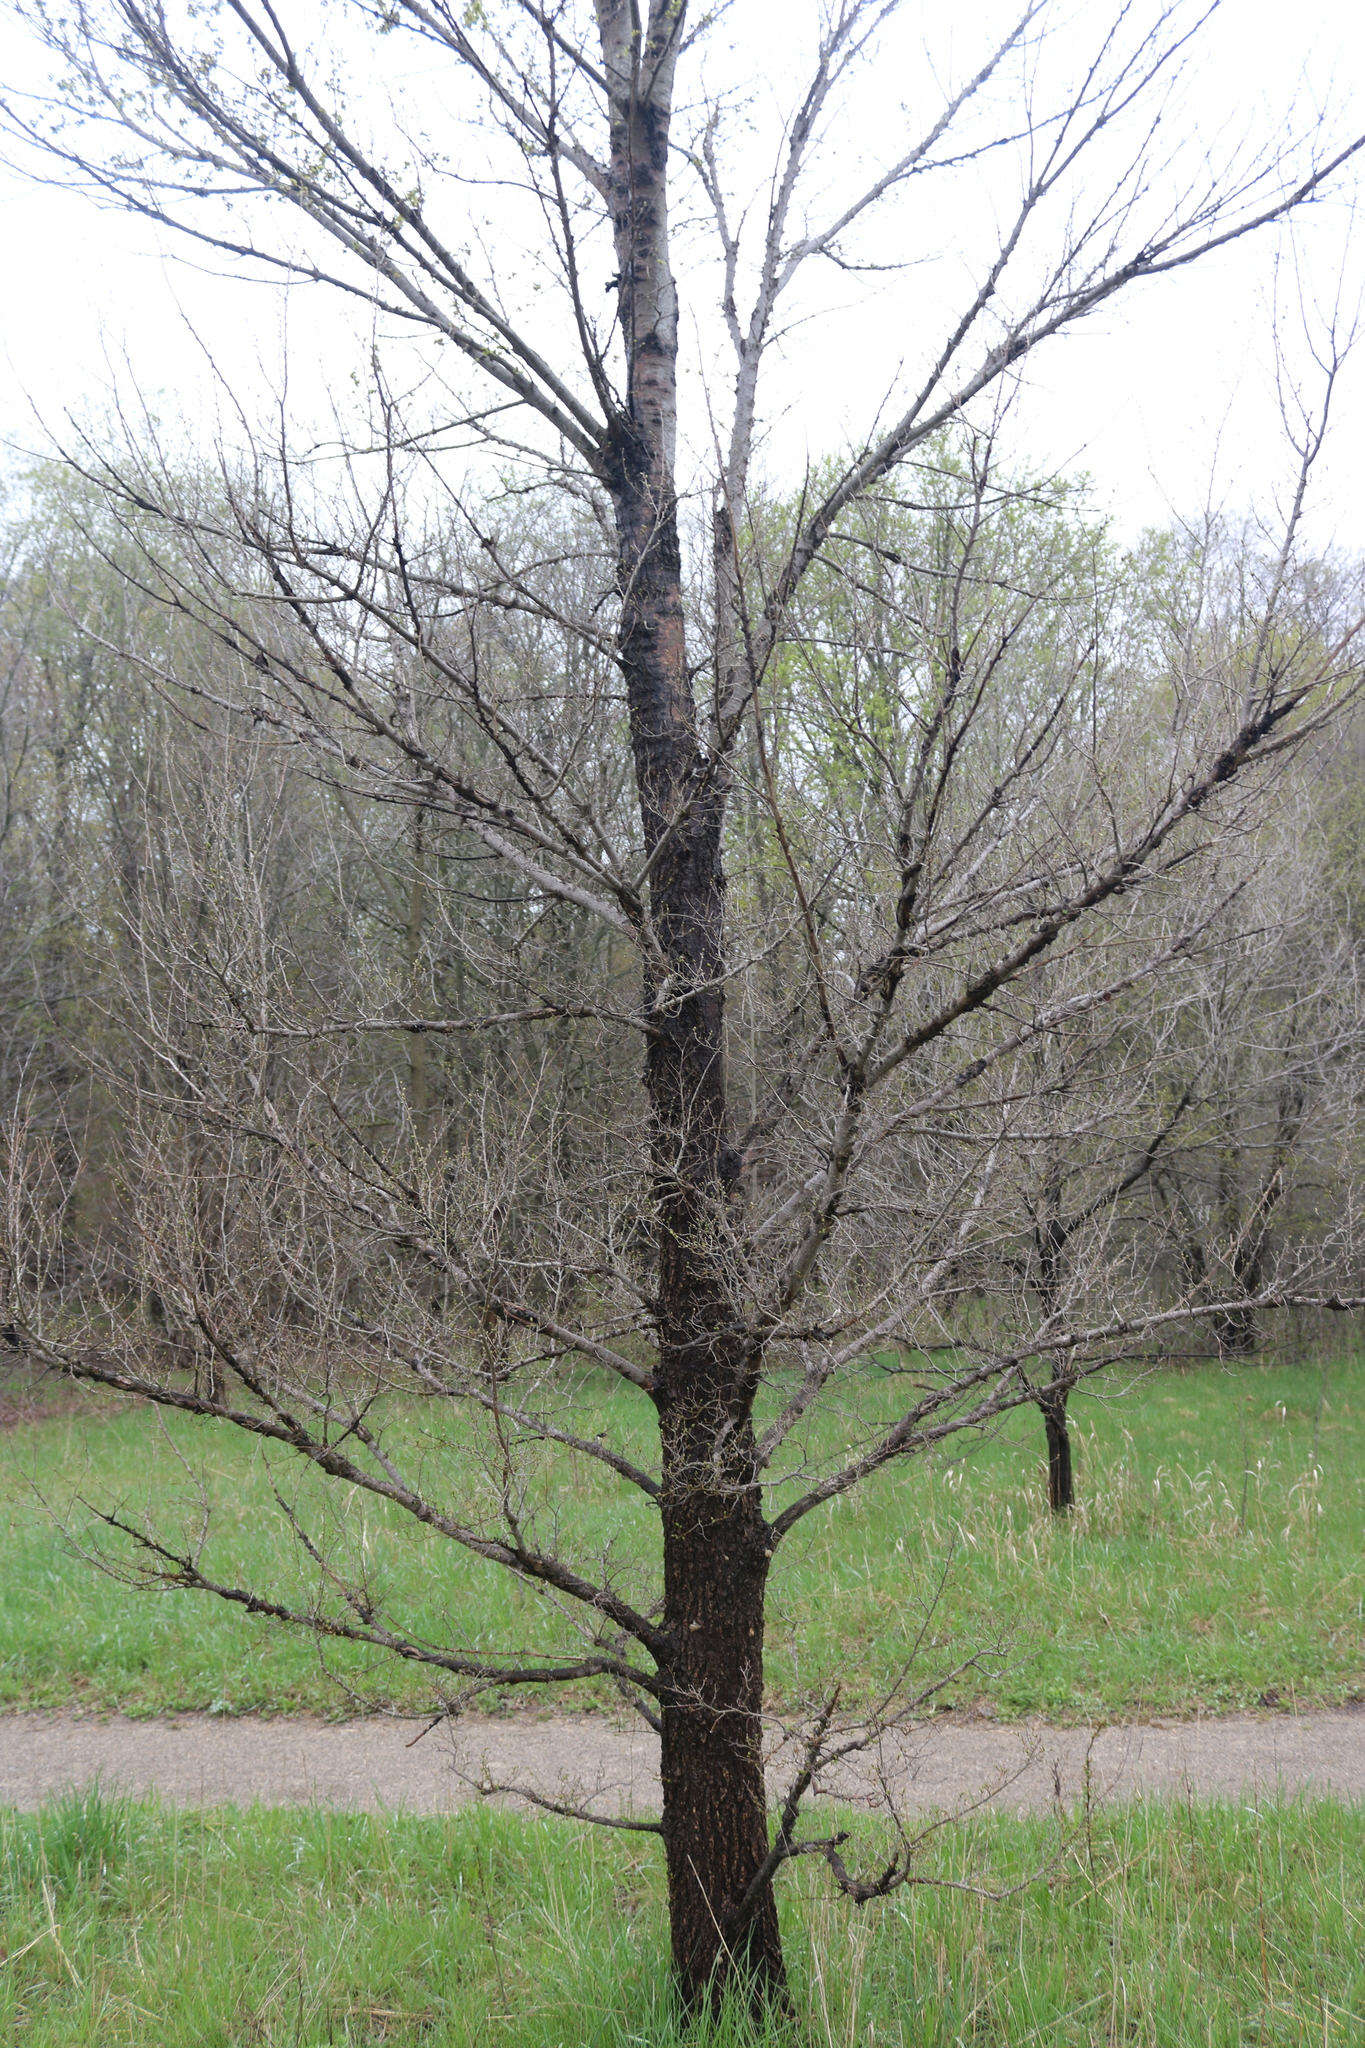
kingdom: Plantae
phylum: Tracheophyta
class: Magnoliopsida
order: Rosales
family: Ulmaceae
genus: Ulmus
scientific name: Ulmus pumila
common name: Siberian elm
